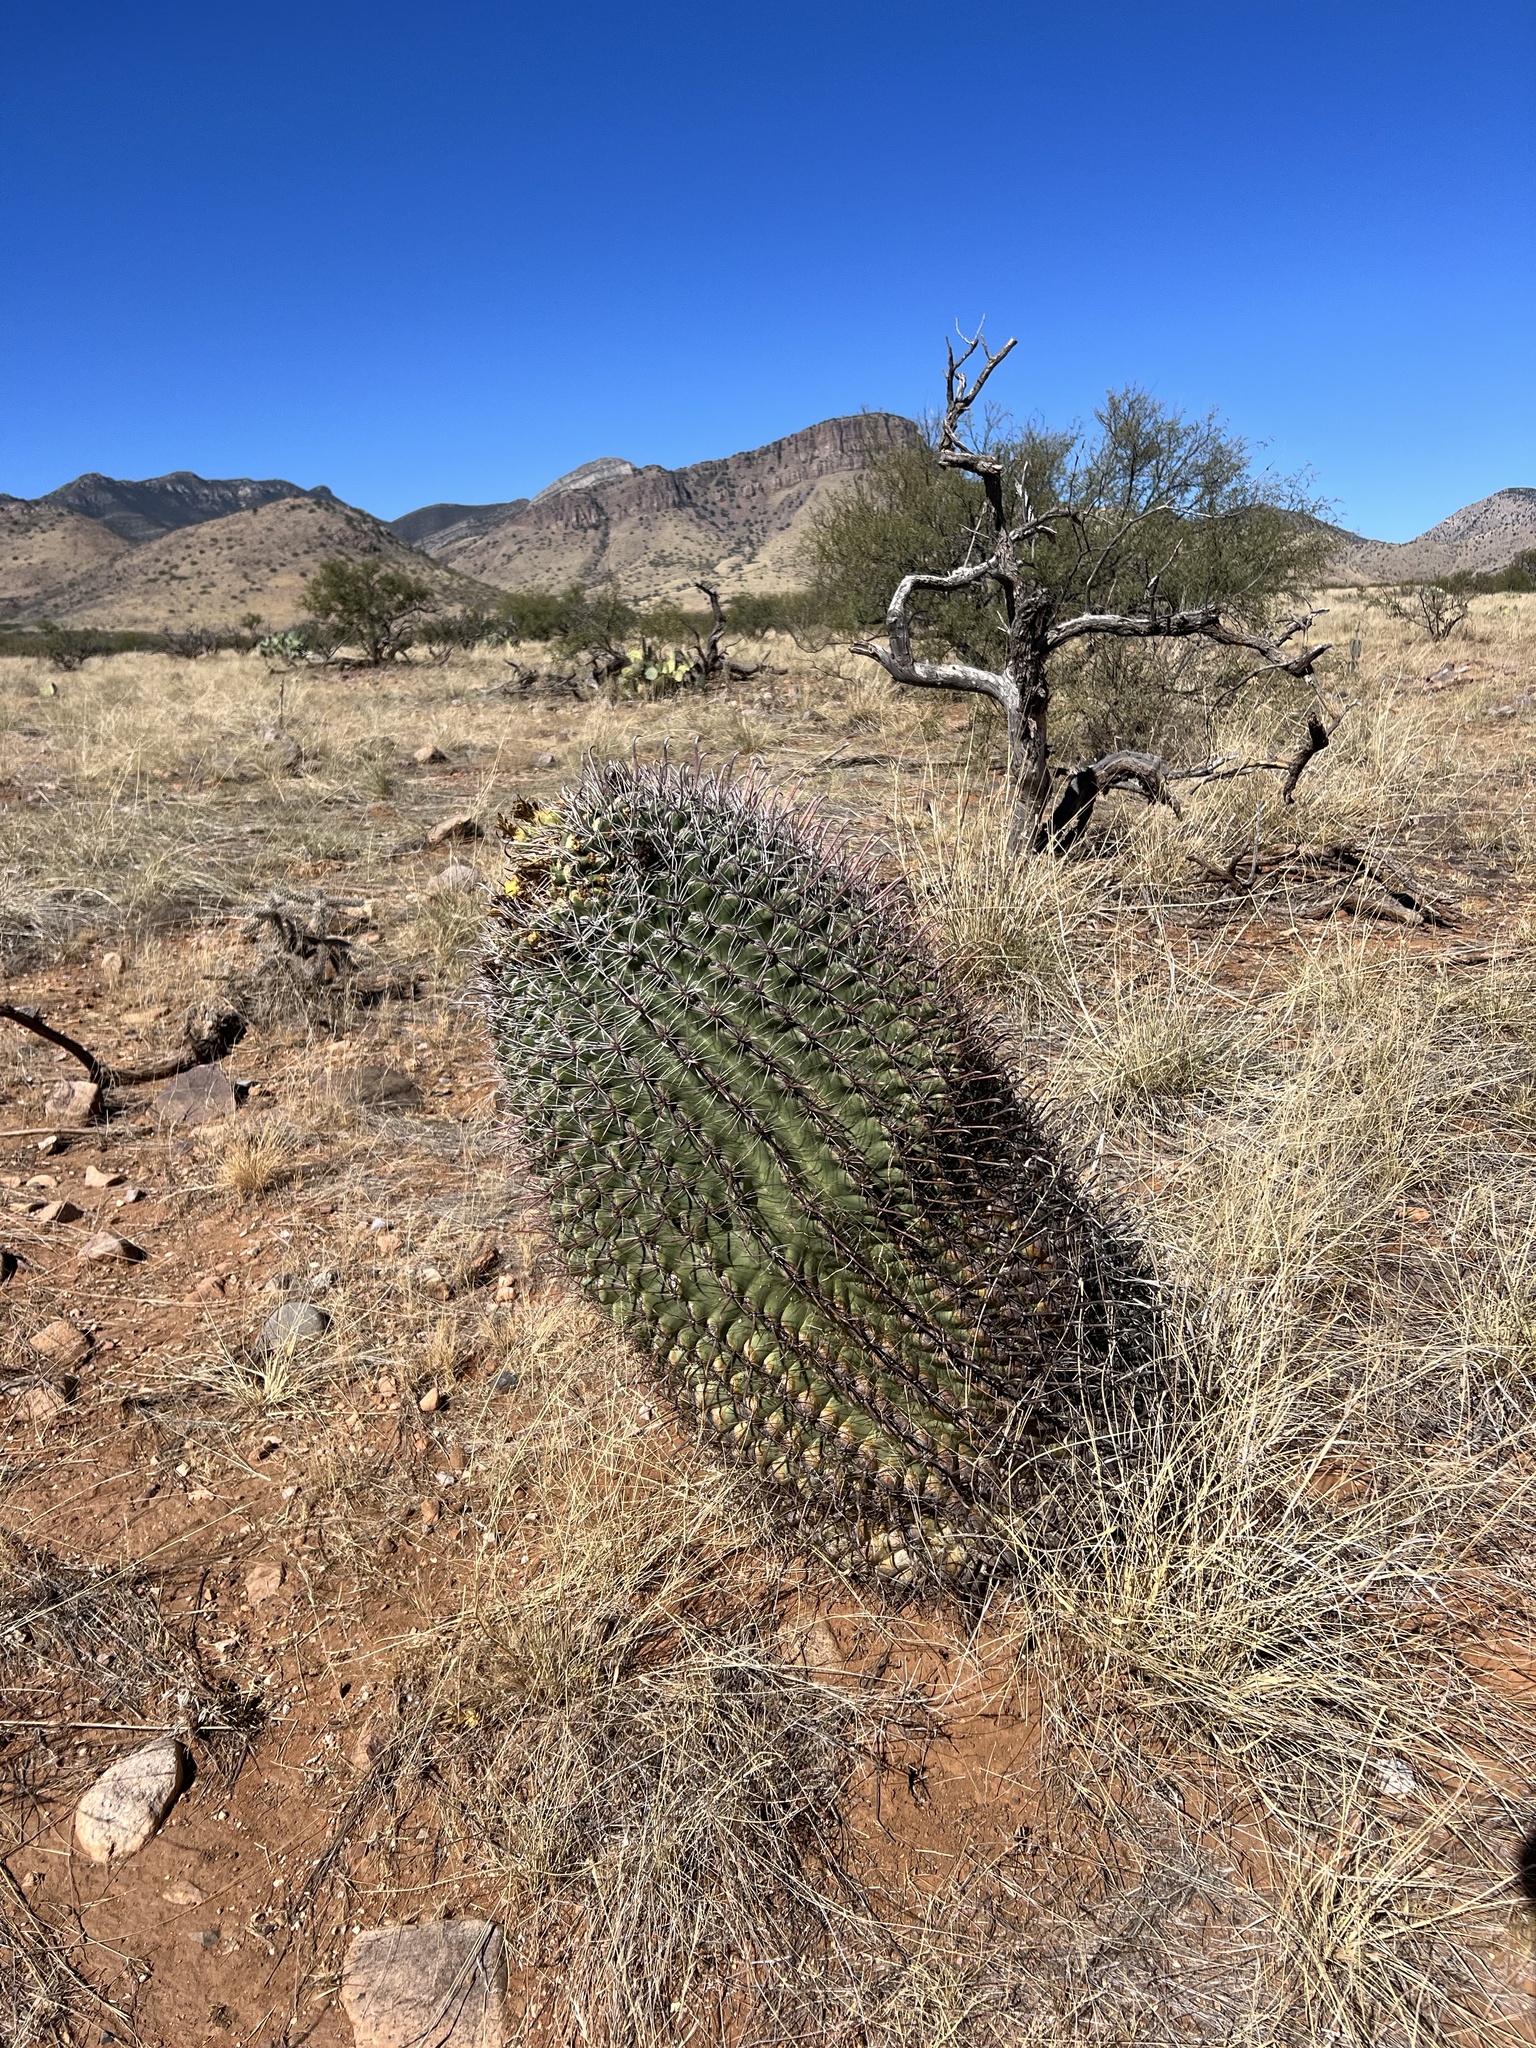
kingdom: Plantae
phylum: Tracheophyta
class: Magnoliopsida
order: Caryophyllales
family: Cactaceae
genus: Ferocactus
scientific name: Ferocactus wislizeni
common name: Candy barrel cactus
